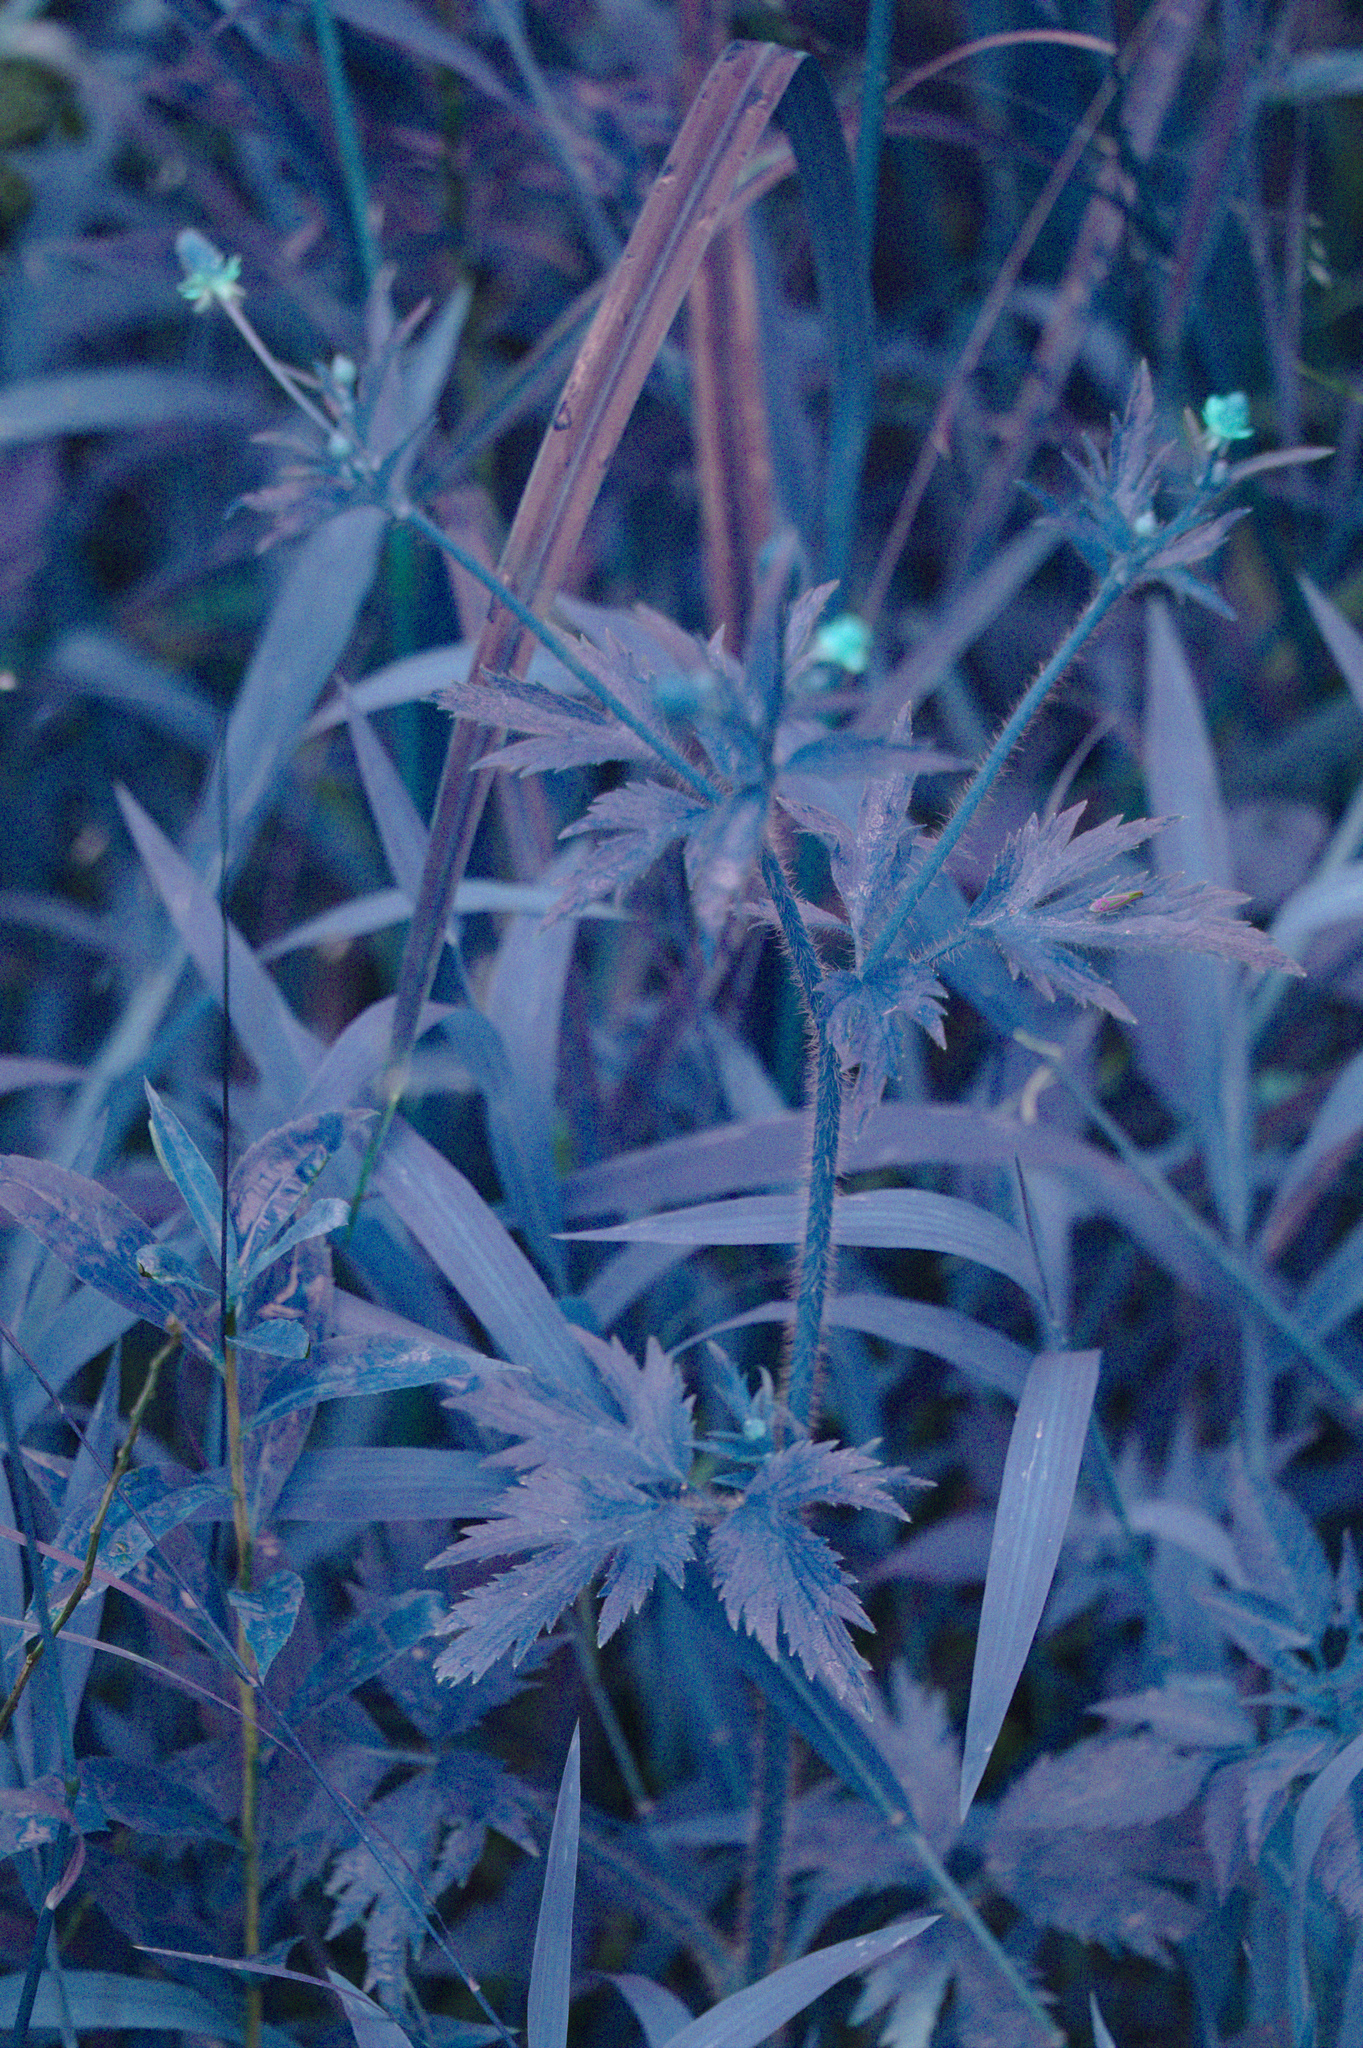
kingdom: Plantae
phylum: Tracheophyta
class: Magnoliopsida
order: Ranunculales
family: Ranunculaceae
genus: Ranunculus
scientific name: Ranunculus pensylvanicus
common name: Bristly buttercup
